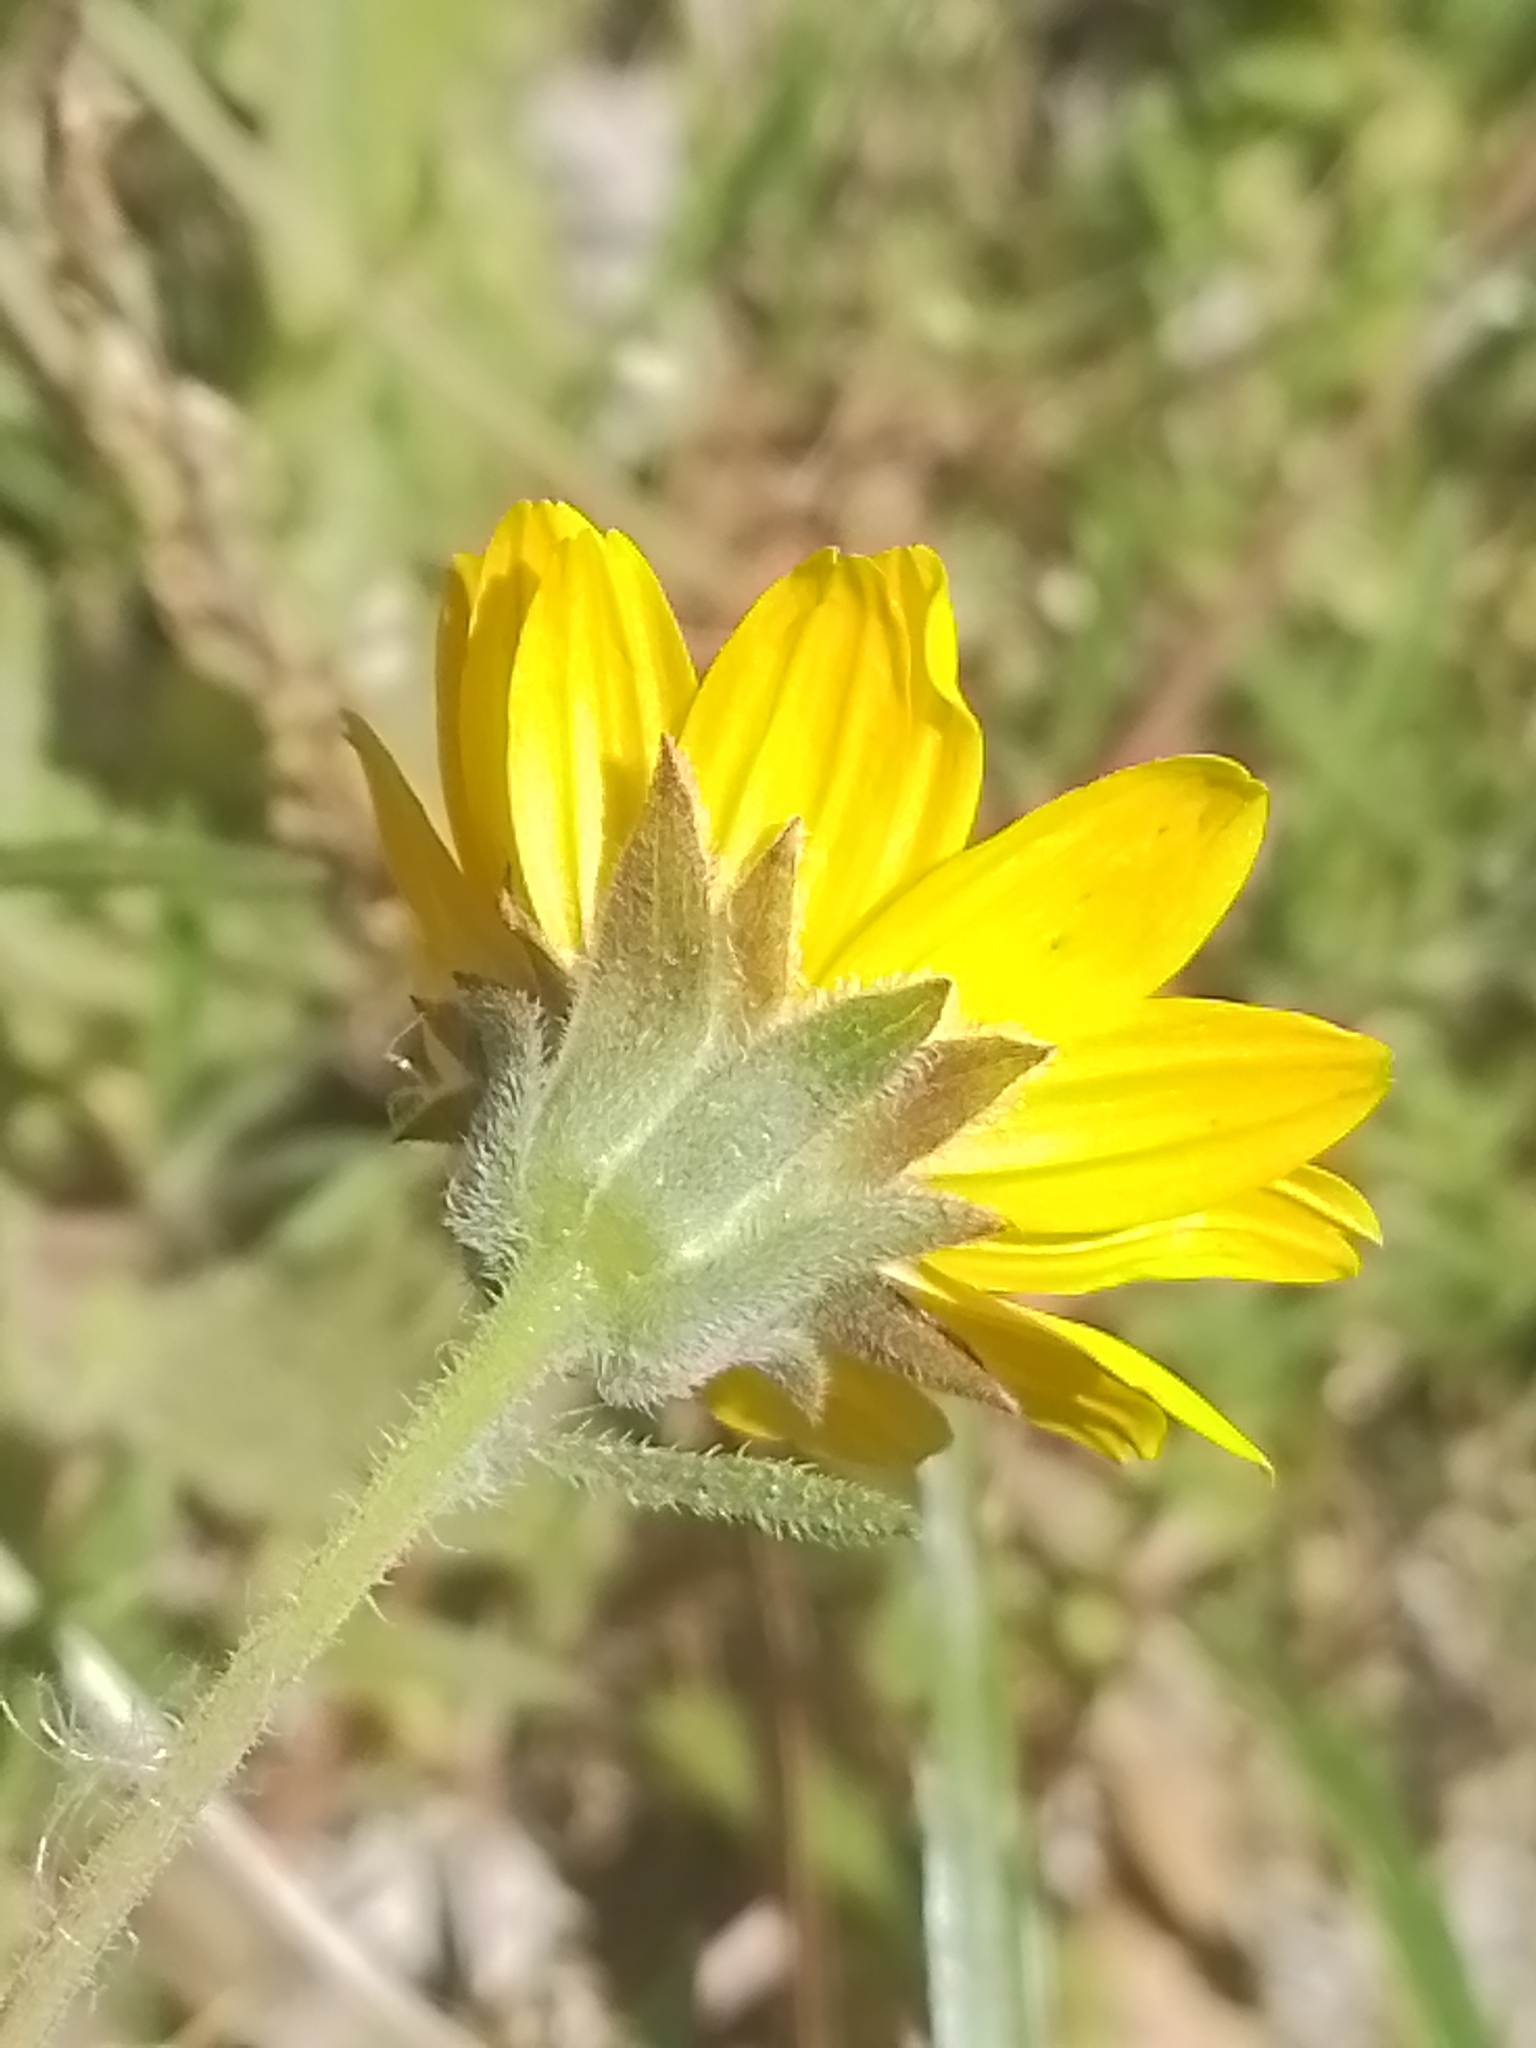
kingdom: Plantae
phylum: Tracheophyta
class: Magnoliopsida
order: Asterales
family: Asteraceae
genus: Wedelia
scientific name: Wedelia montevidensis
